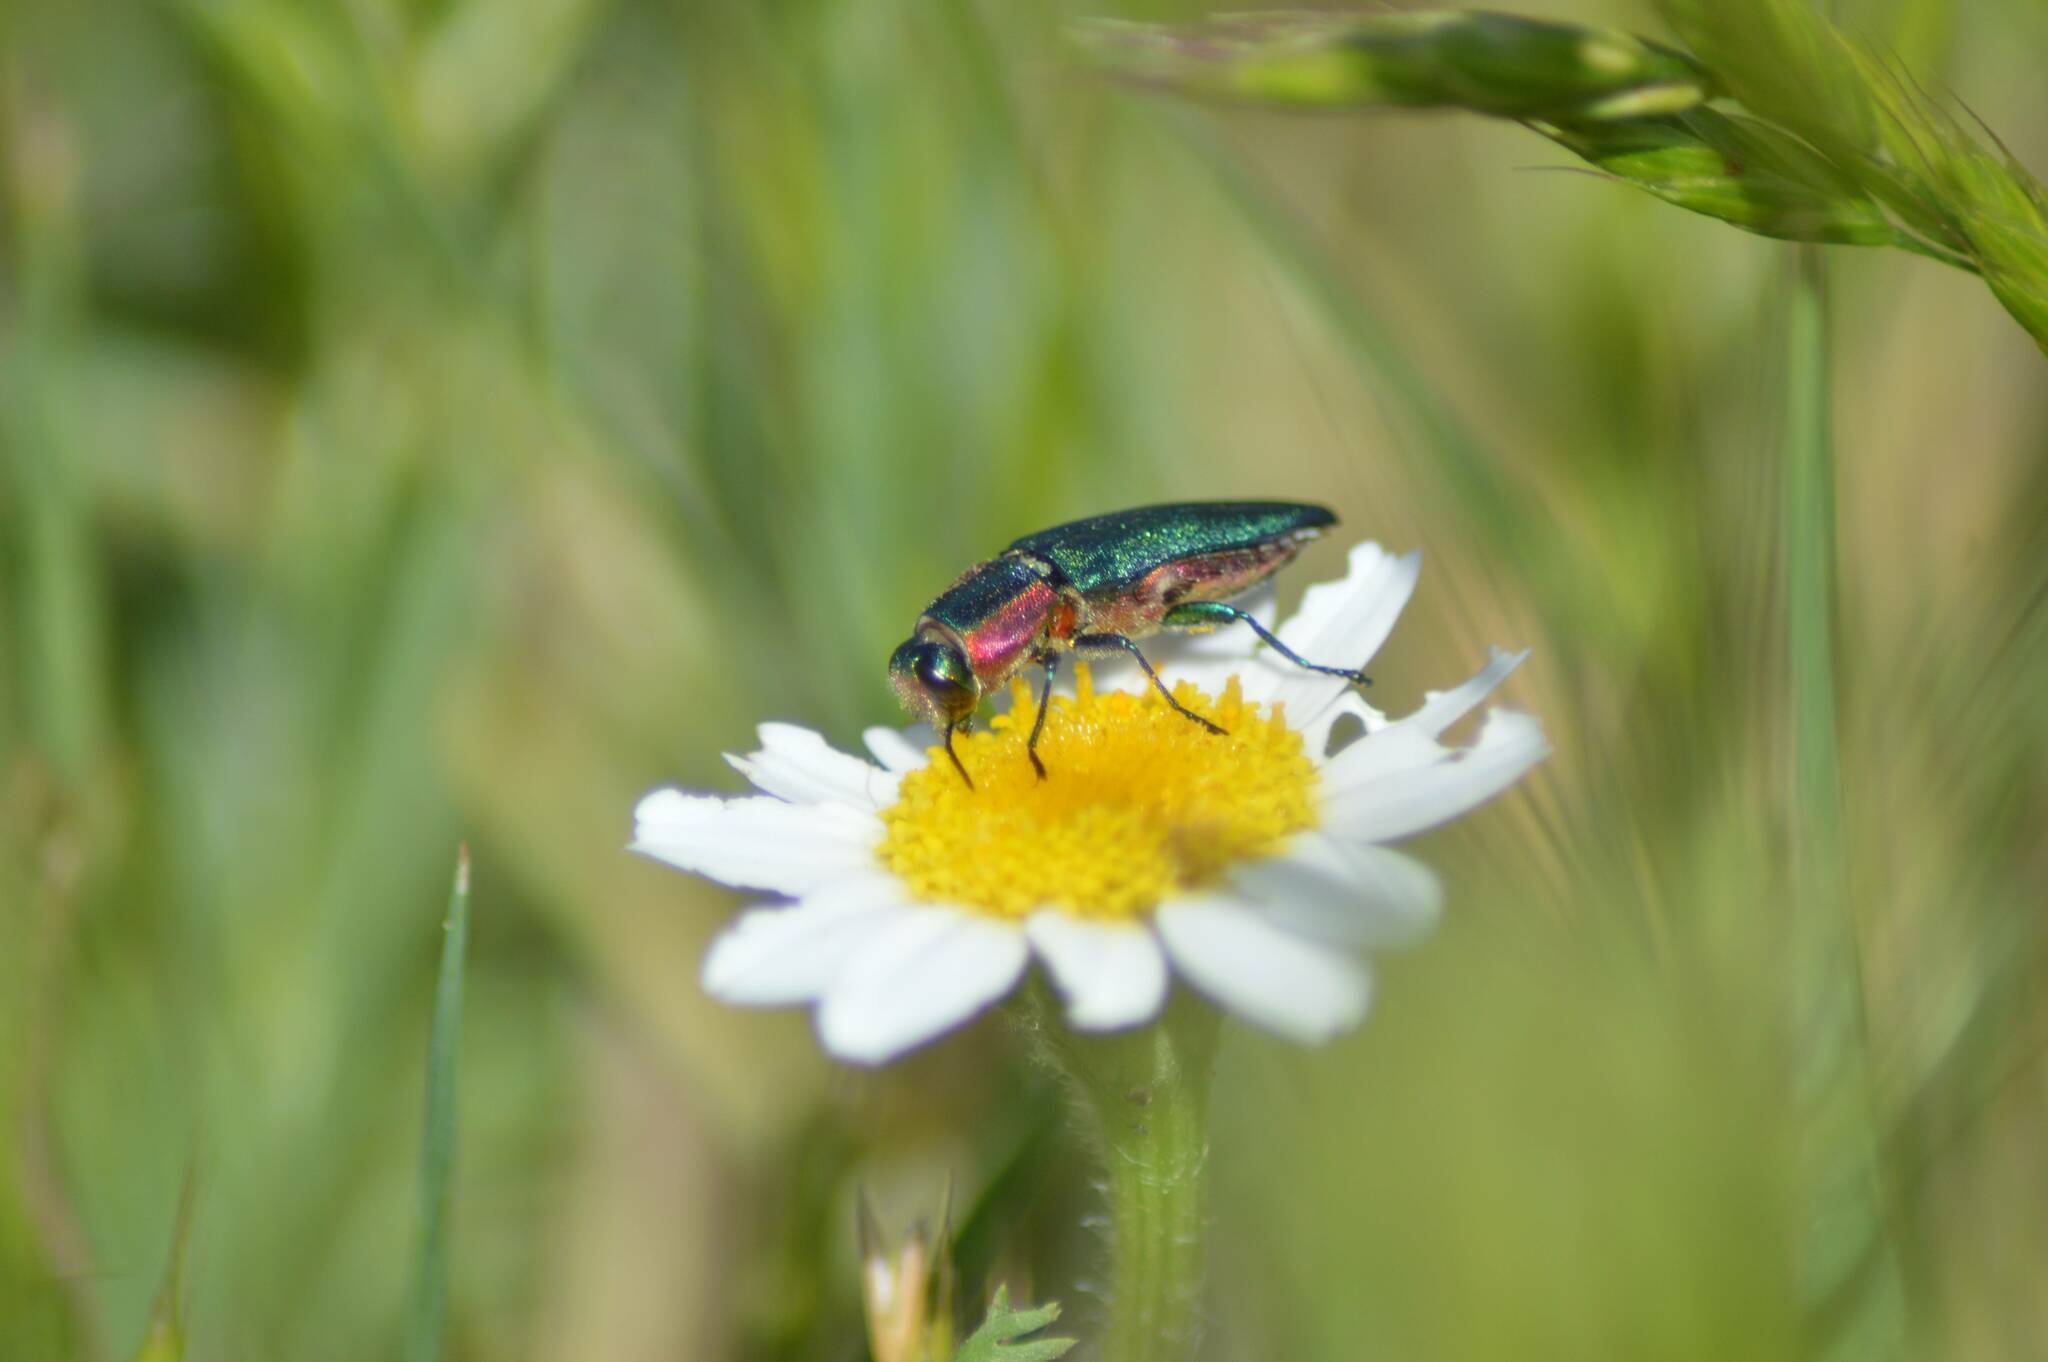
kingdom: Animalia
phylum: Arthropoda
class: Insecta
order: Coleoptera
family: Buprestidae
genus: Anthaxia
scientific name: Anthaxia hungarica
